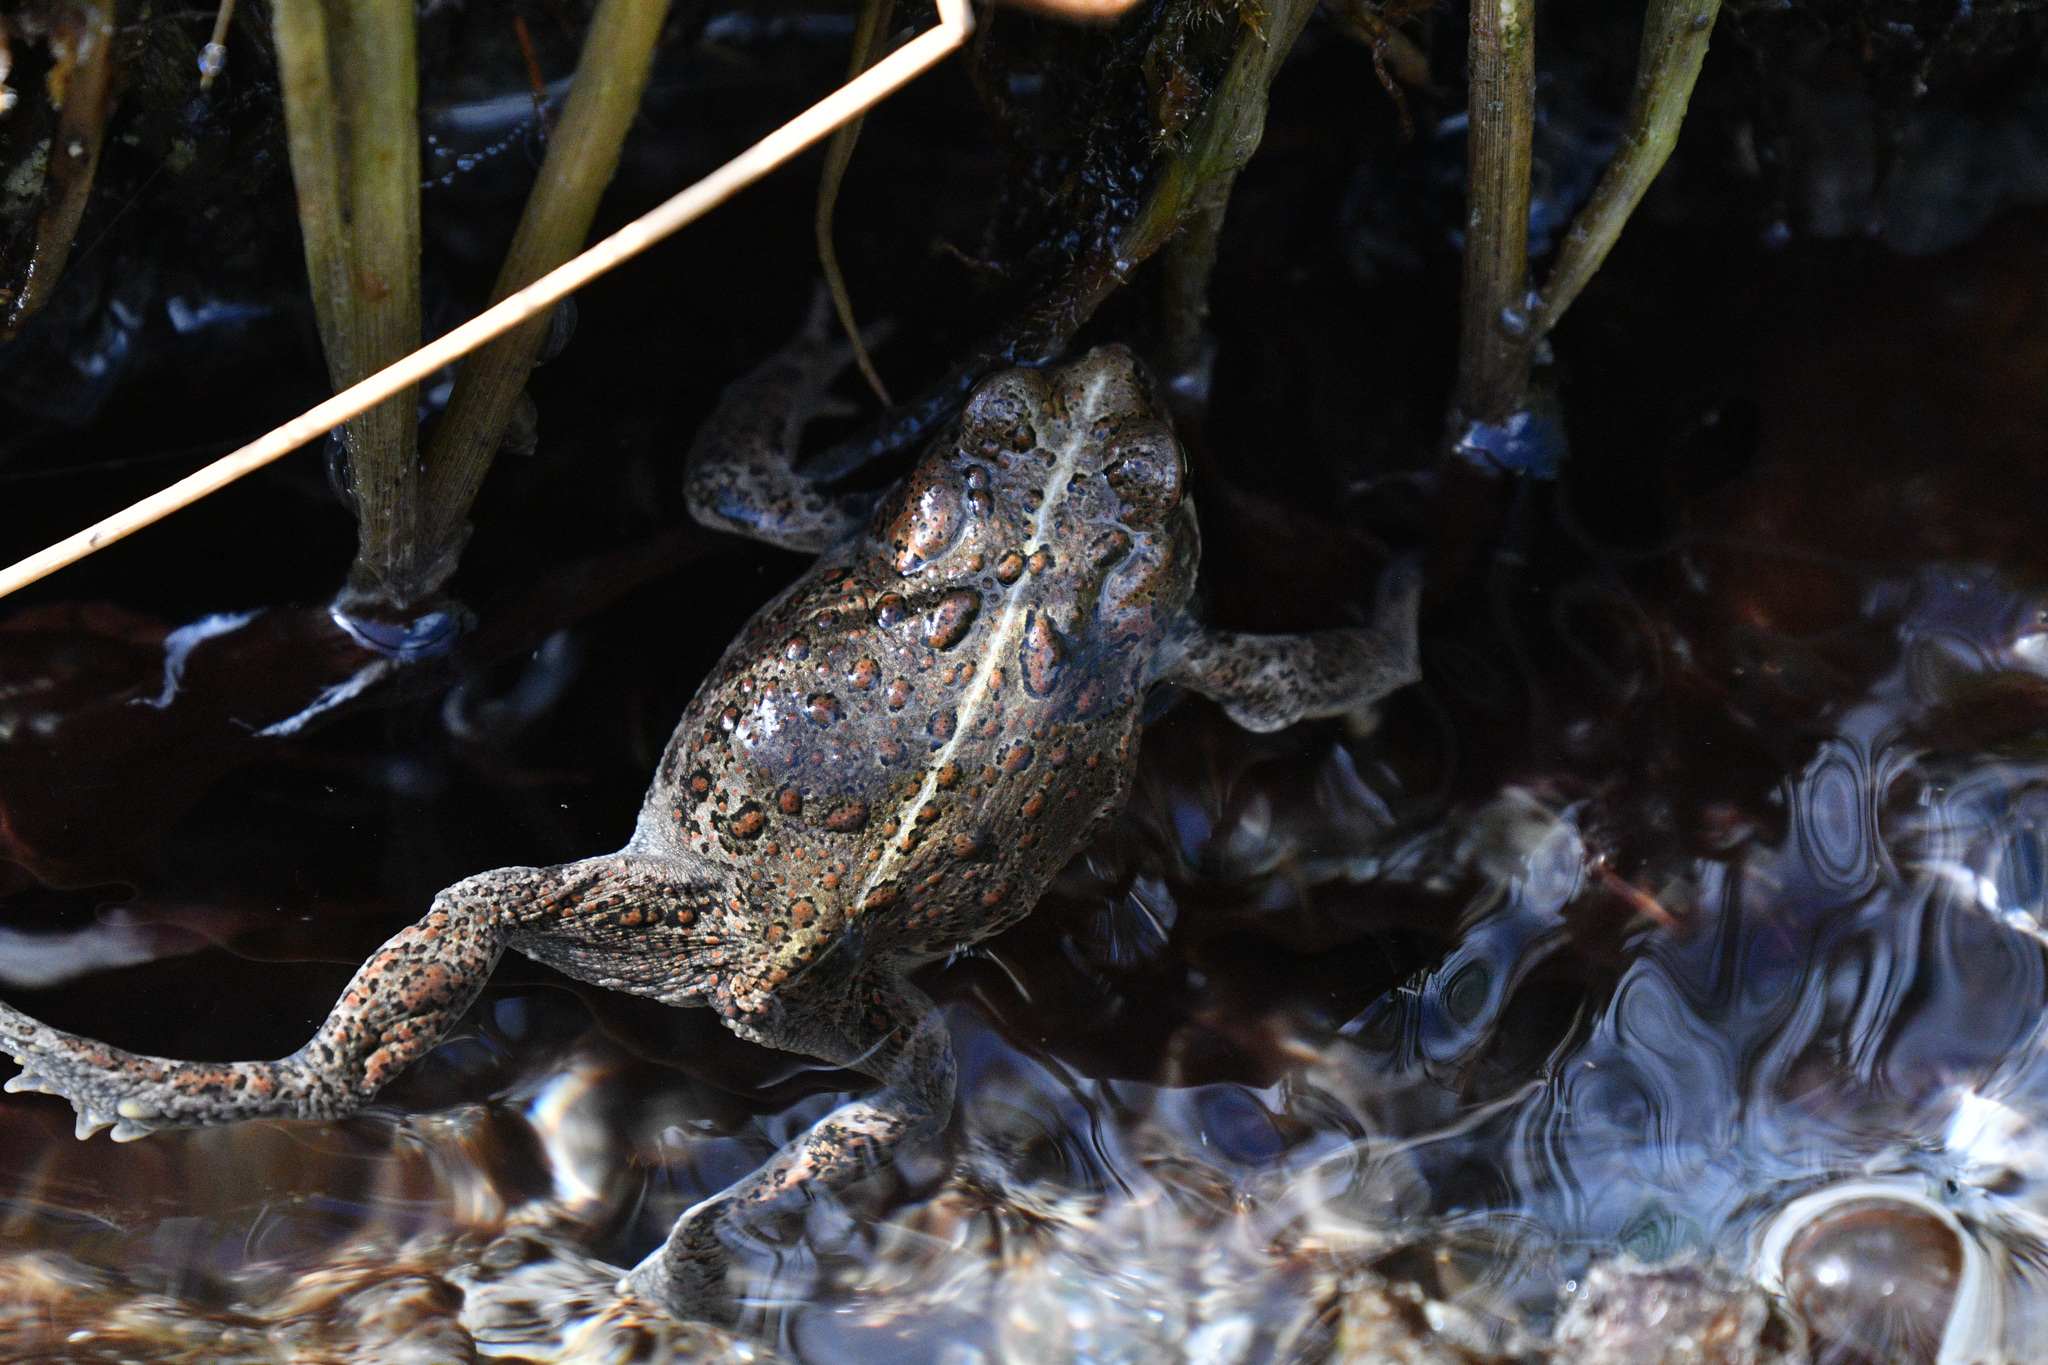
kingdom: Animalia
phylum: Chordata
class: Amphibia
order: Anura
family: Bufonidae
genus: Anaxyrus
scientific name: Anaxyrus boreas
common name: Western toad
